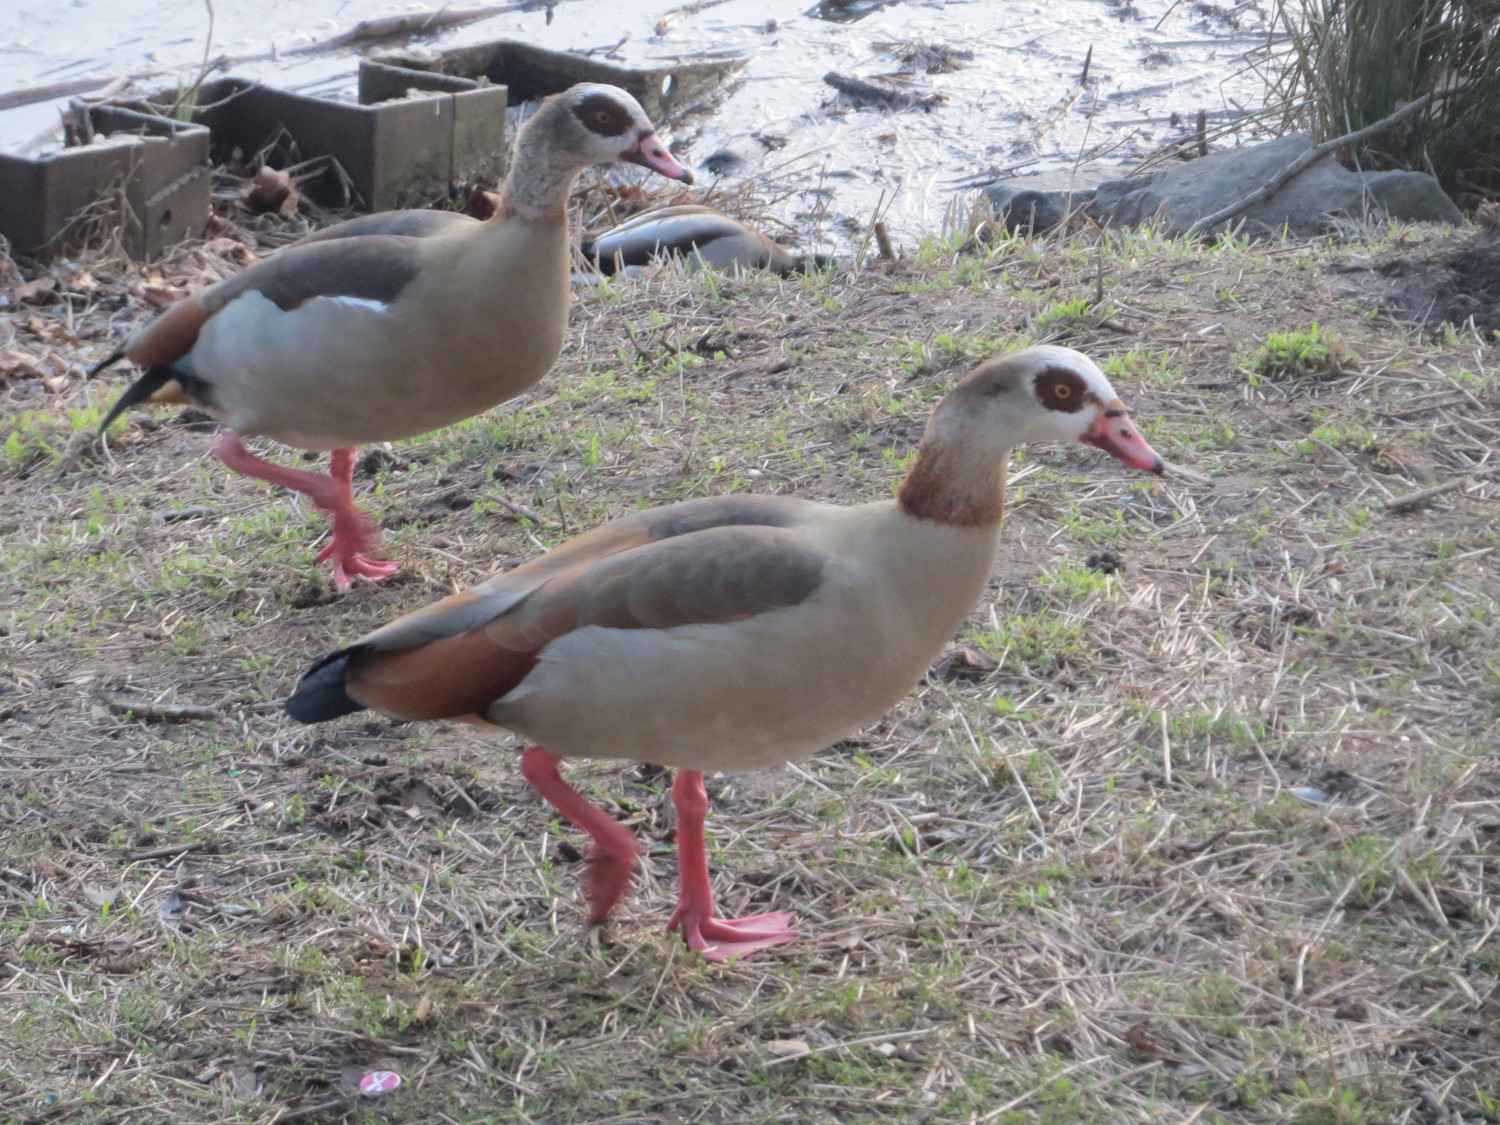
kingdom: Animalia
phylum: Chordata
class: Aves
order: Anseriformes
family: Anatidae
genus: Alopochen
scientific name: Alopochen aegyptiaca
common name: Egyptian goose
